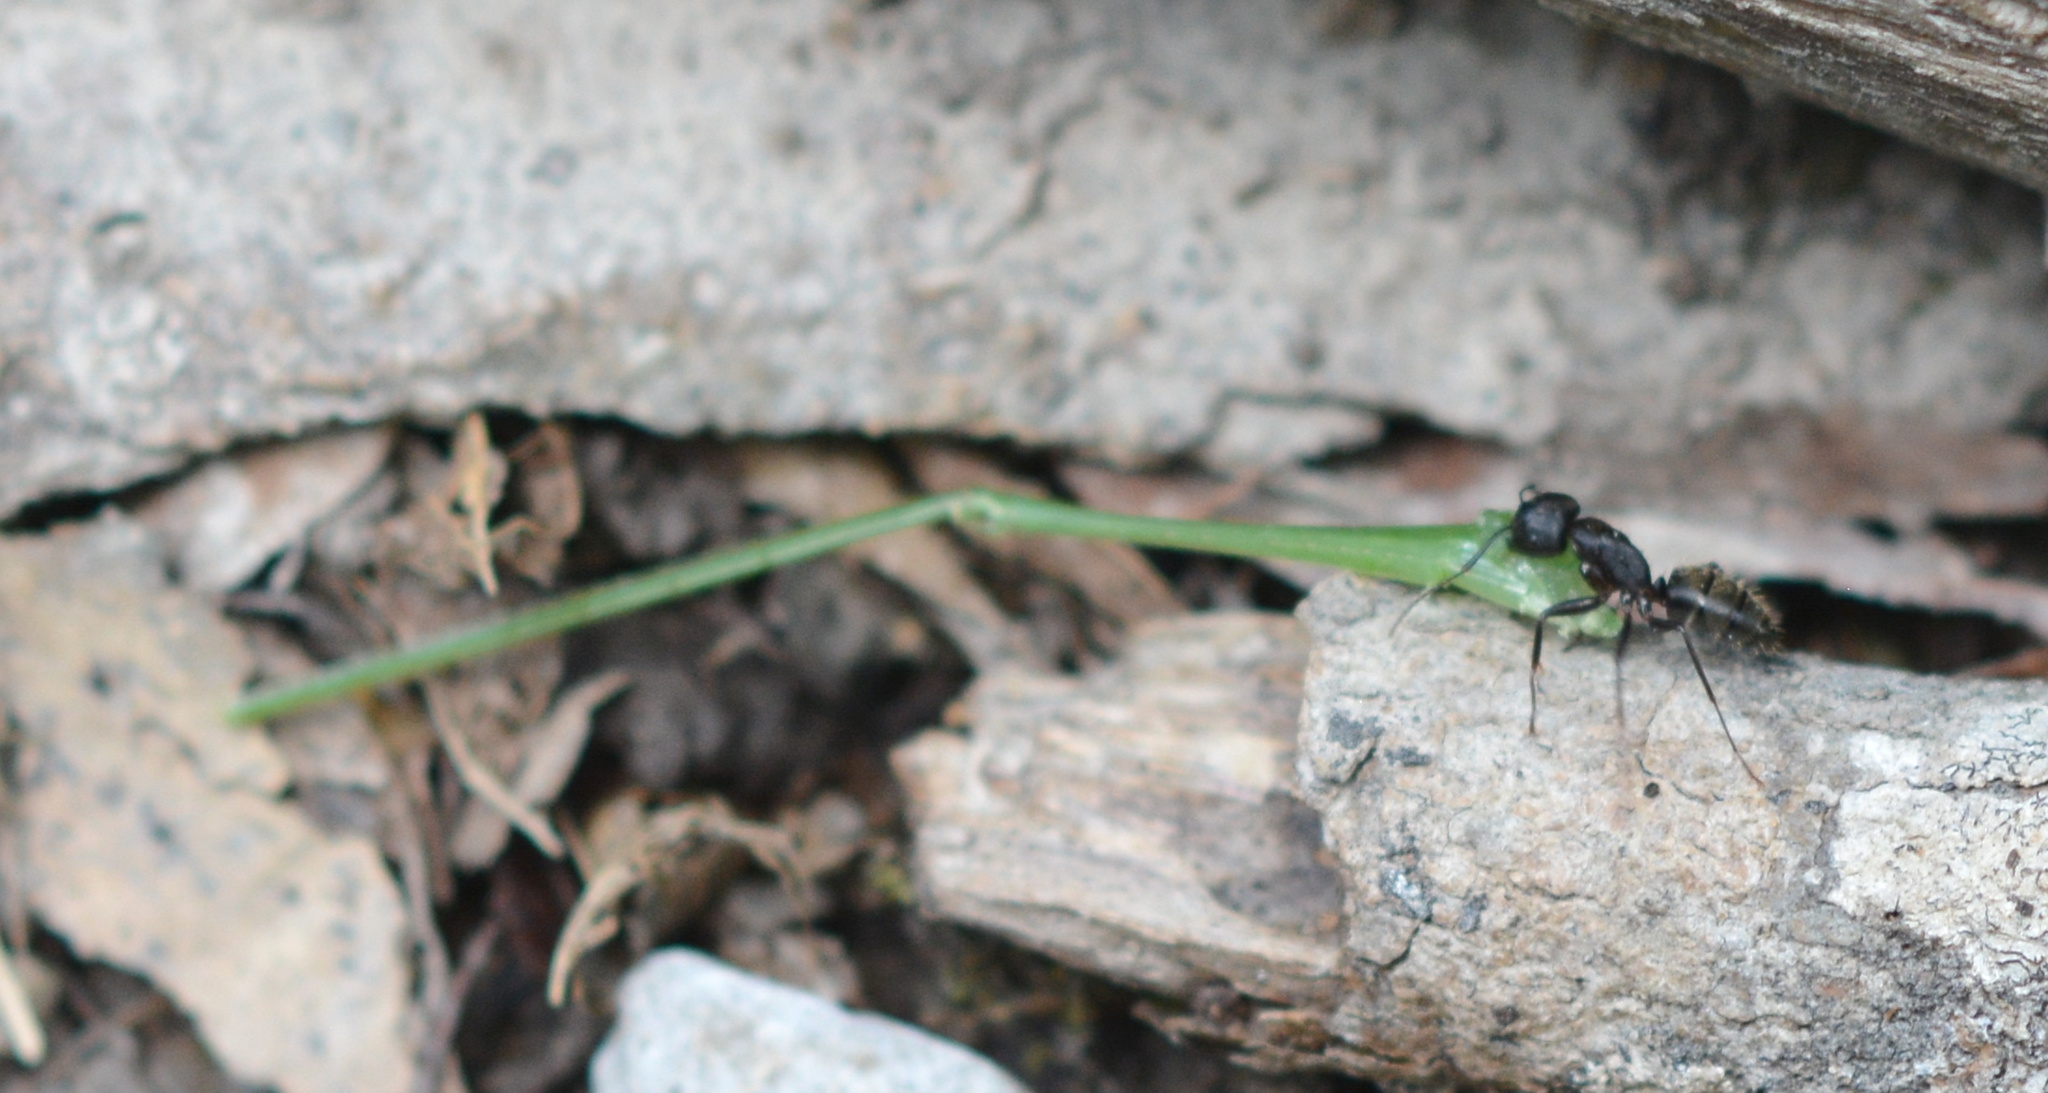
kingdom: Animalia
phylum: Arthropoda
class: Insecta
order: Hymenoptera
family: Formicidae
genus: Camponotus
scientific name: Camponotus pennsylvanicus
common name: Black carpenter ant
